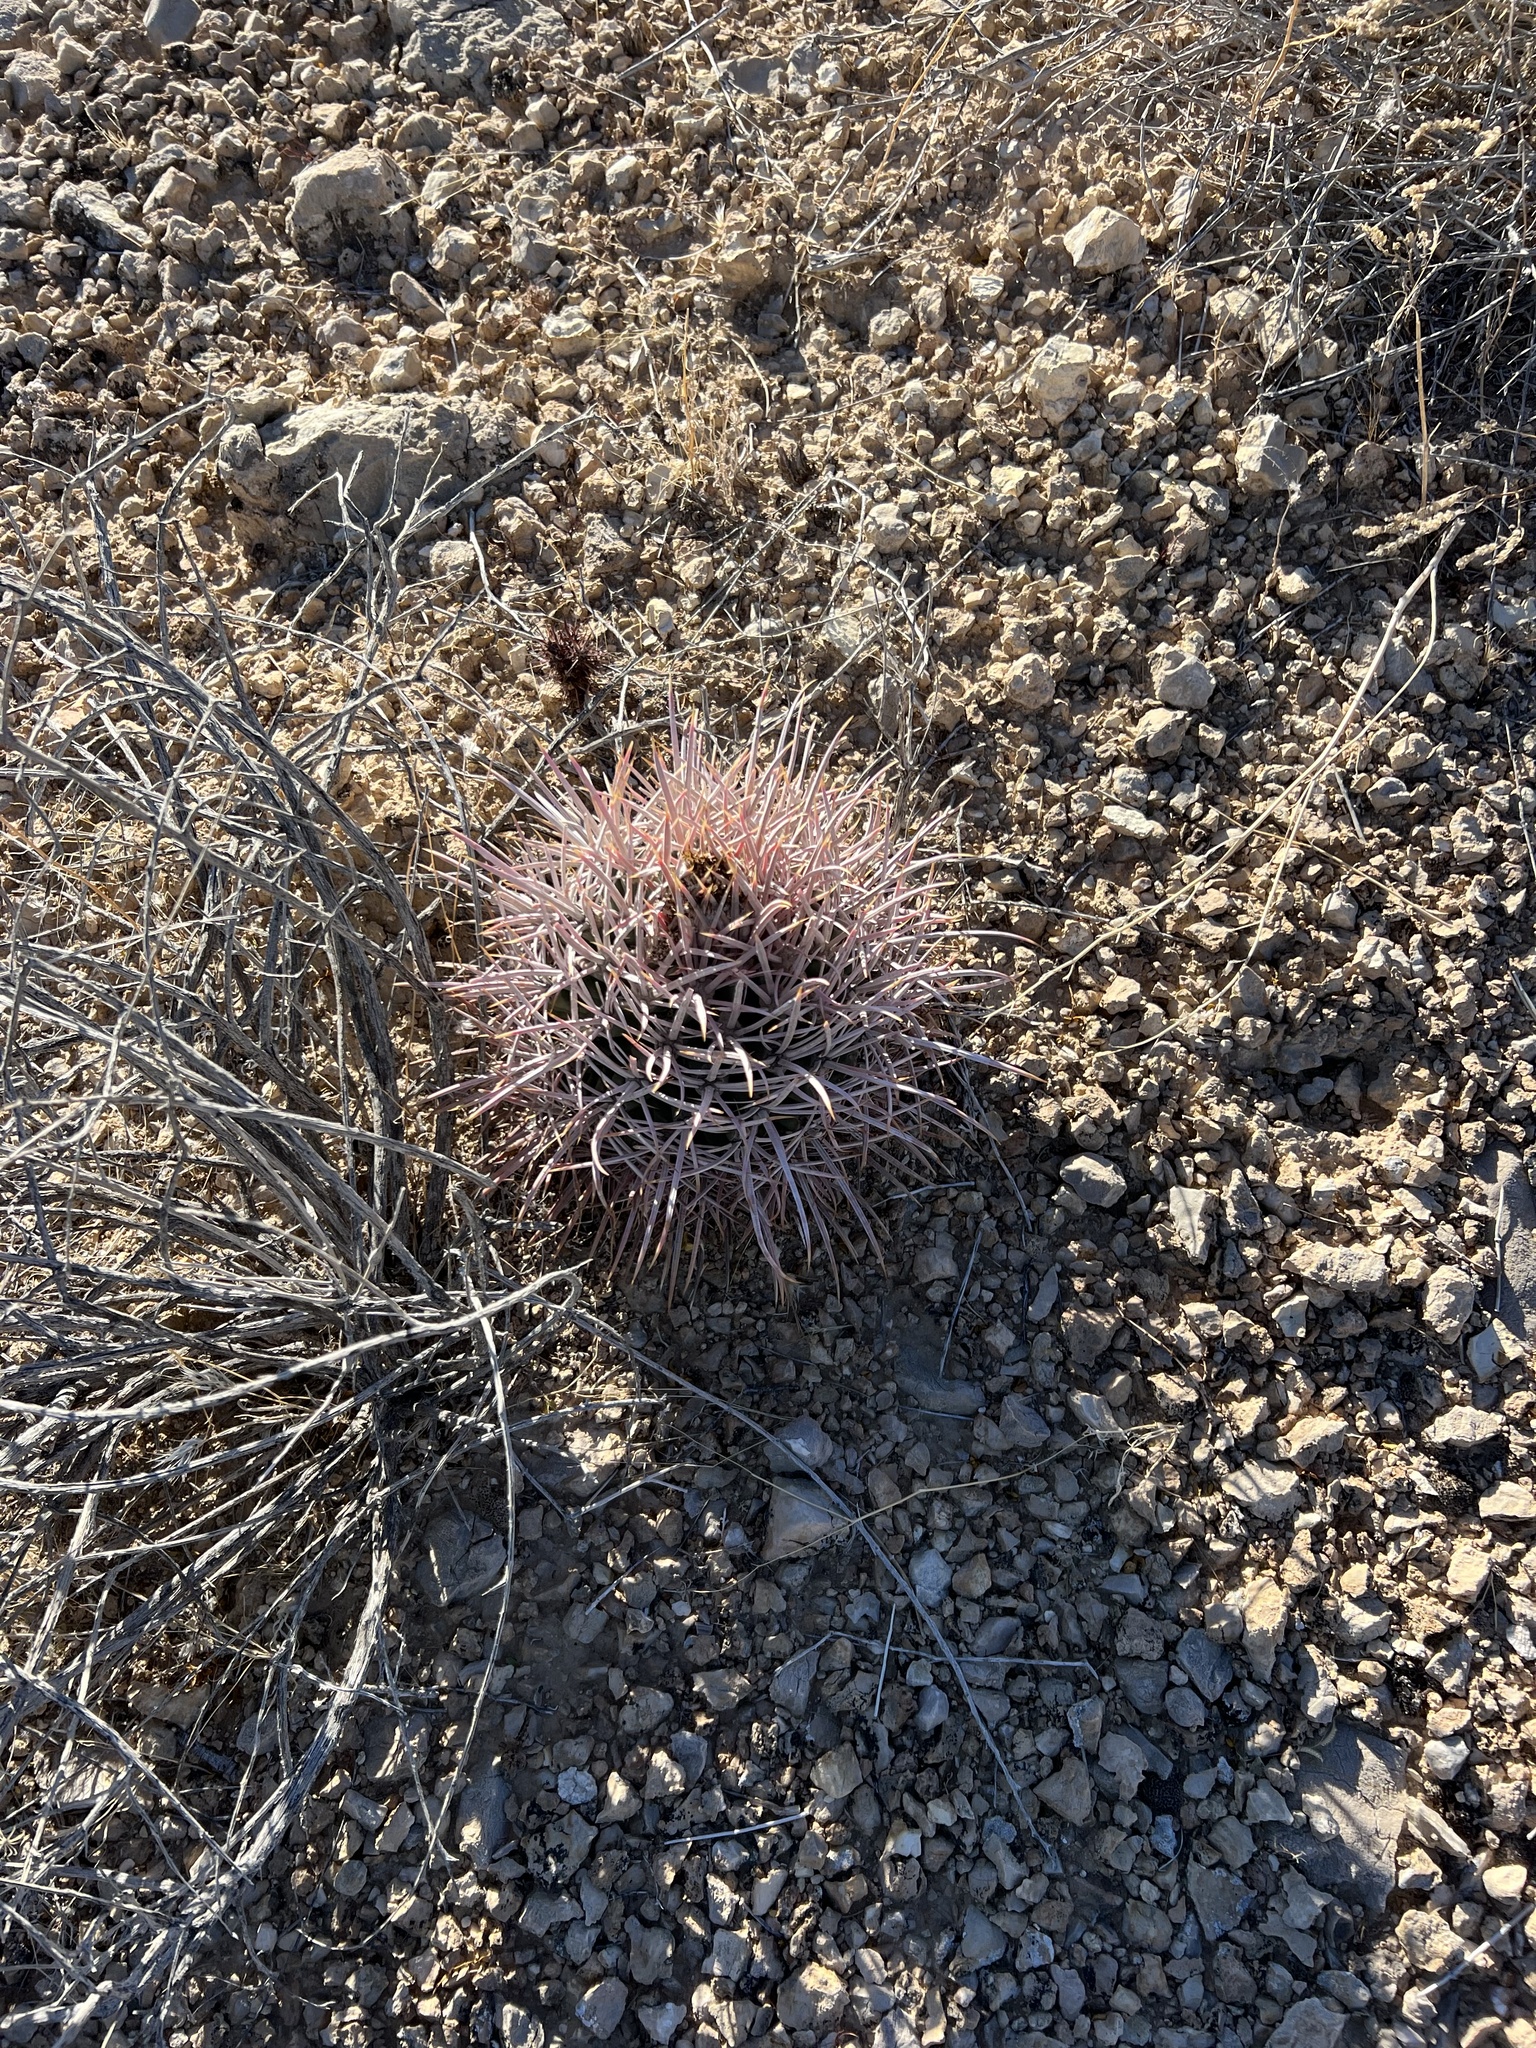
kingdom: Plantae
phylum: Tracheophyta
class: Magnoliopsida
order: Caryophyllales
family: Cactaceae
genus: Echinocactus
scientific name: Echinocactus polycephalus
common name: Cottontop cactus
